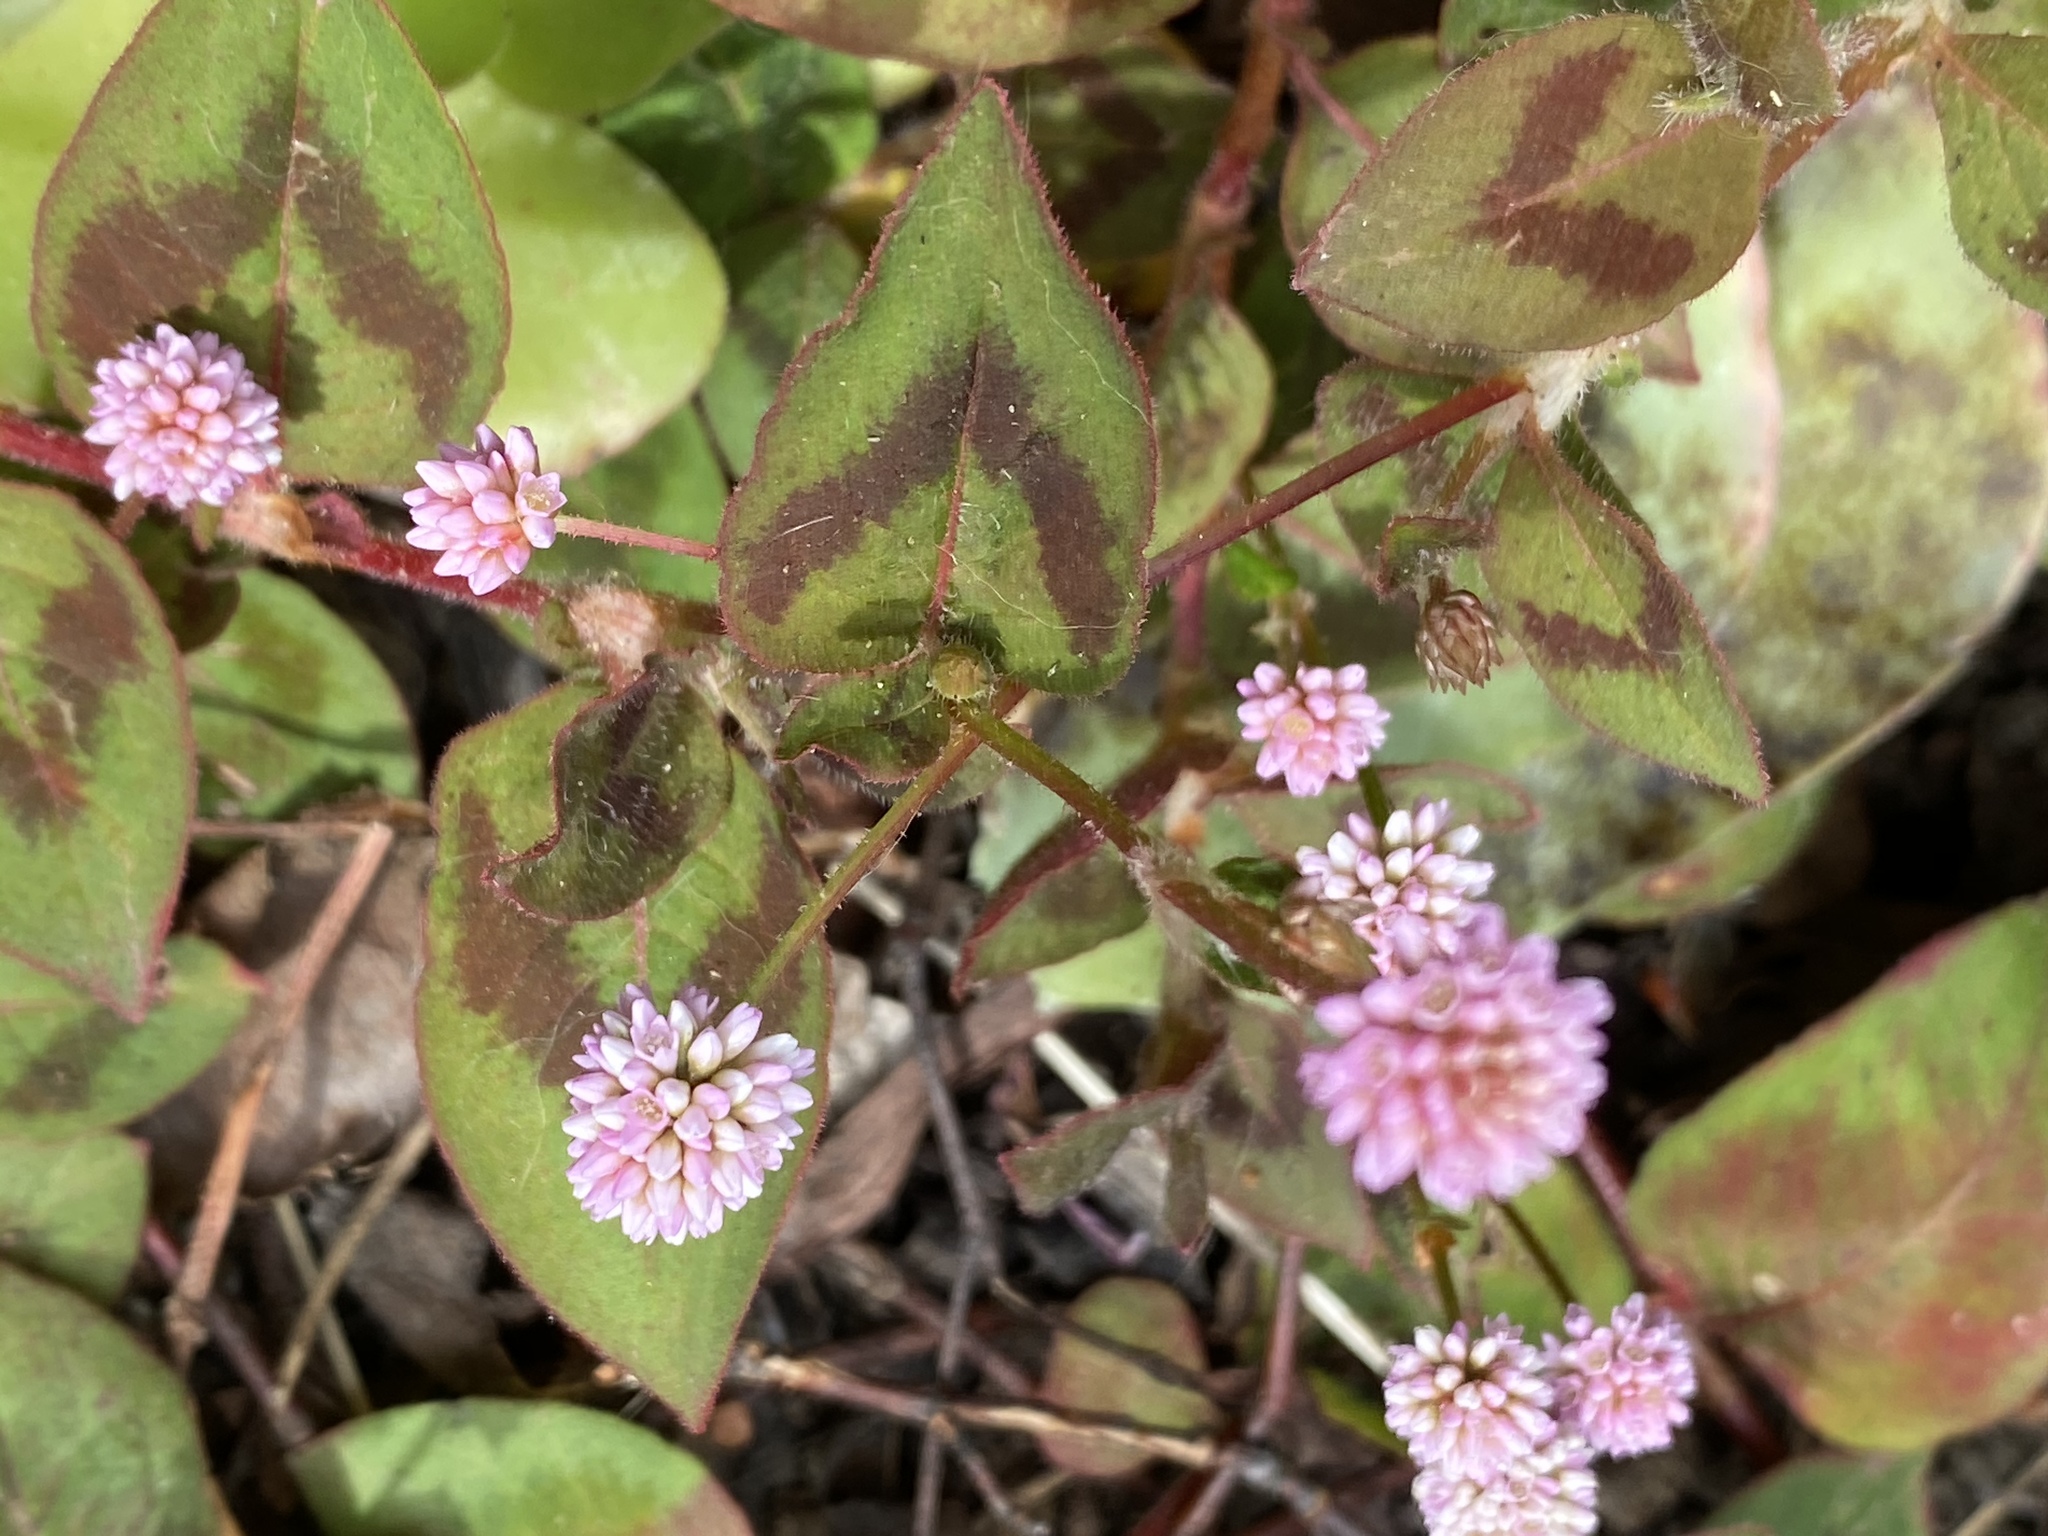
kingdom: Plantae
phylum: Tracheophyta
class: Magnoliopsida
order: Caryophyllales
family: Polygonaceae
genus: Persicaria
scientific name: Persicaria capitata
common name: Pinkhead smartweed
